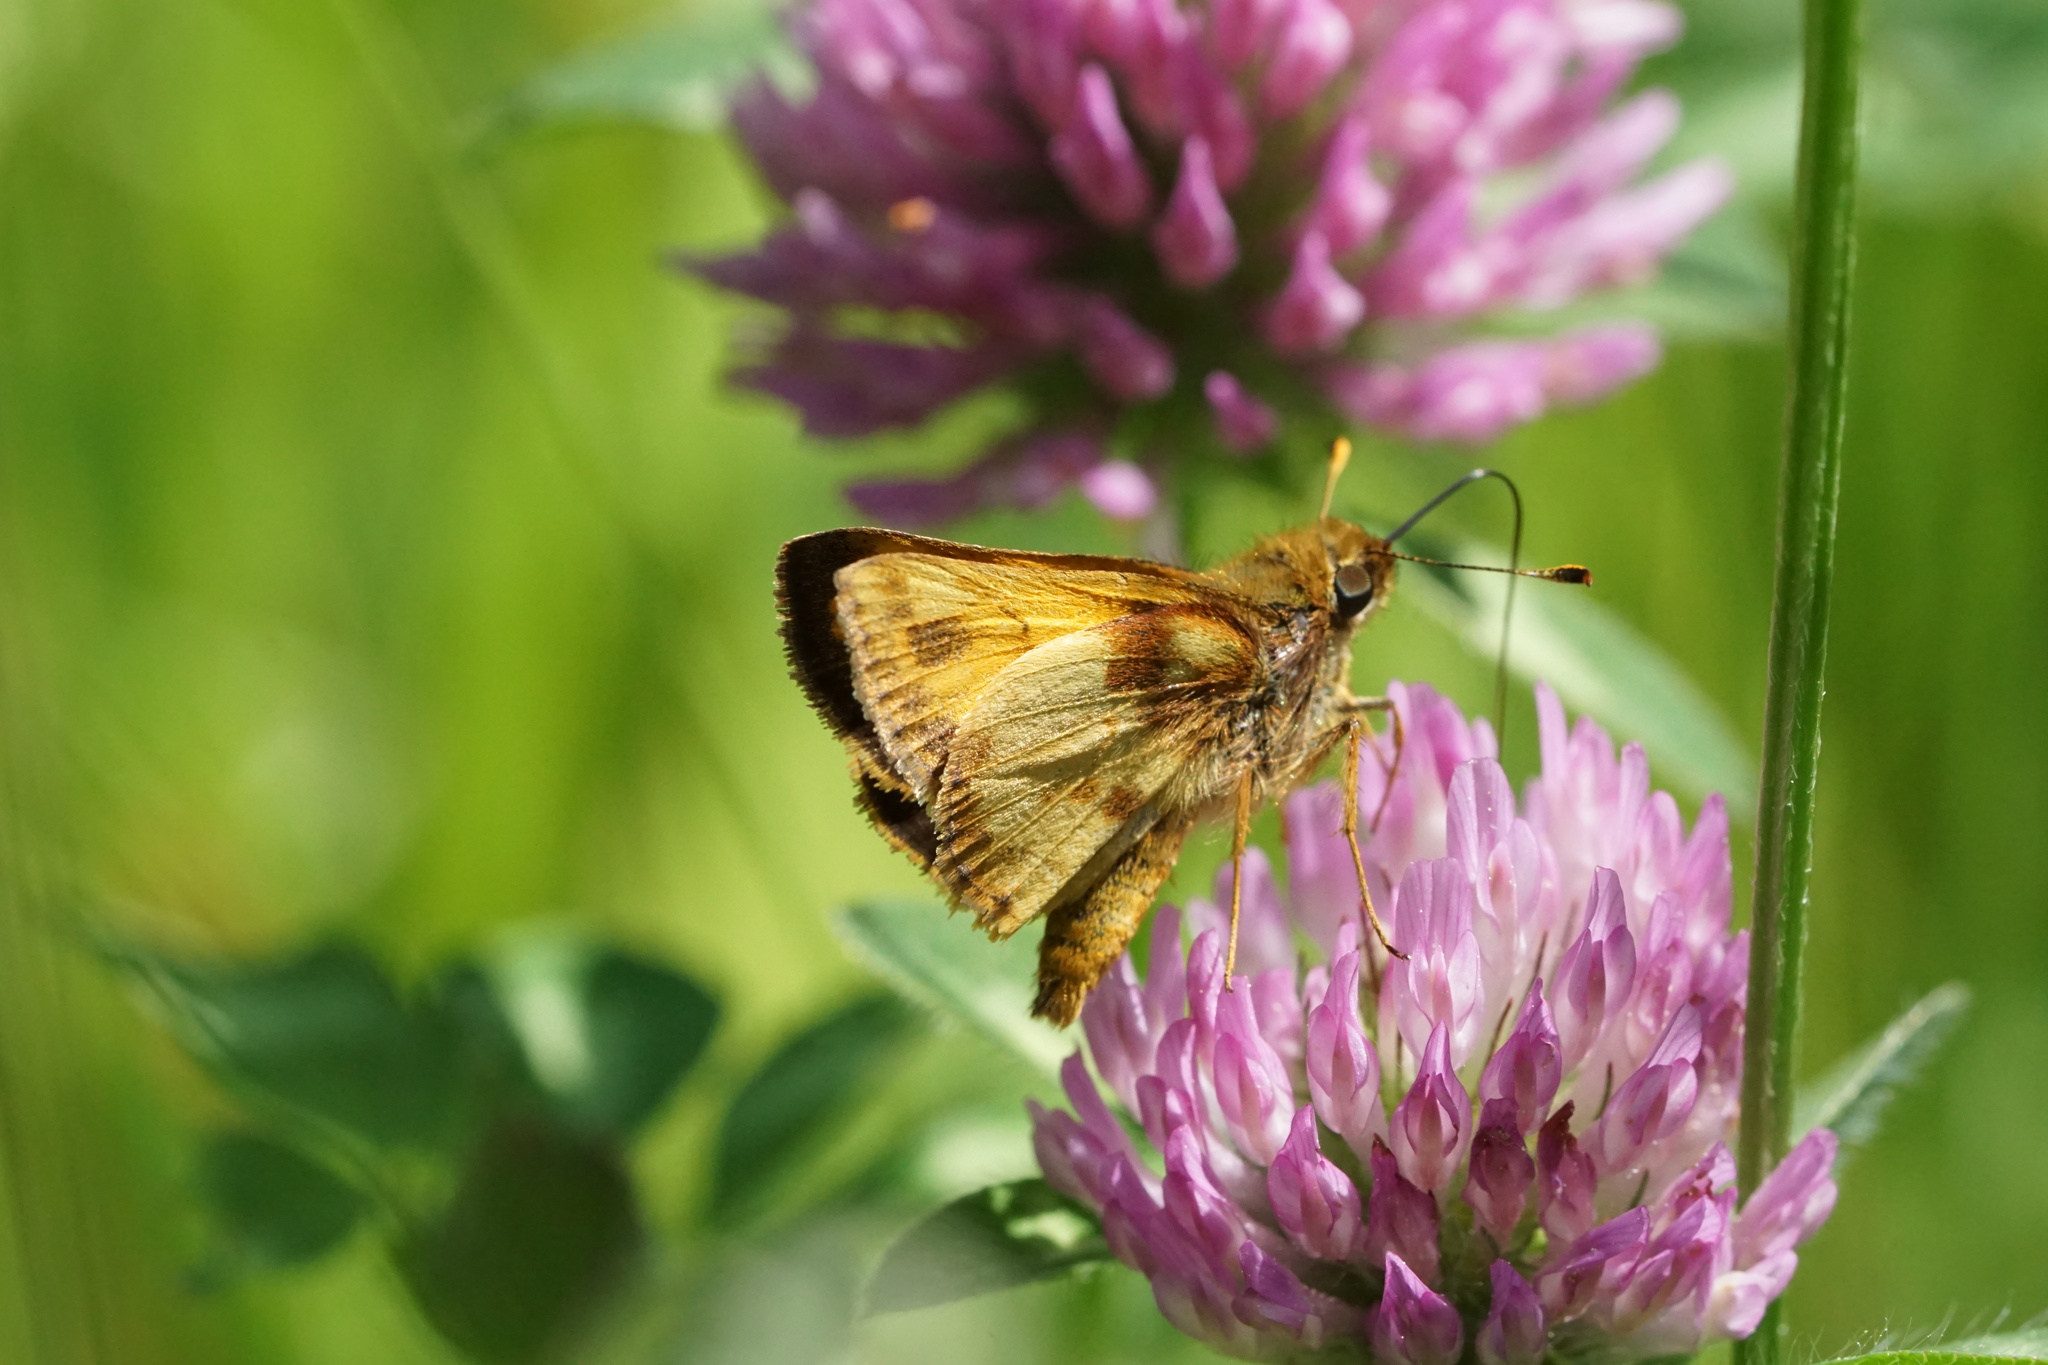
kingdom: Animalia
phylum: Arthropoda
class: Insecta
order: Lepidoptera
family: Hesperiidae
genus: Lon
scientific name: Lon zabulon
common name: Zabulon skipper
